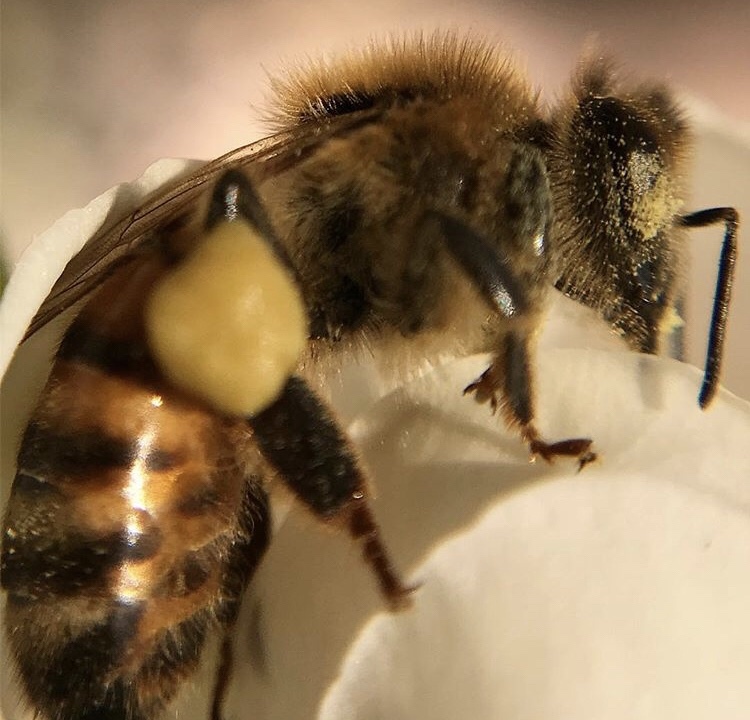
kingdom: Animalia
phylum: Arthropoda
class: Insecta
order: Hymenoptera
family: Apidae
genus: Apis
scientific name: Apis mellifera
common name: Honey bee
